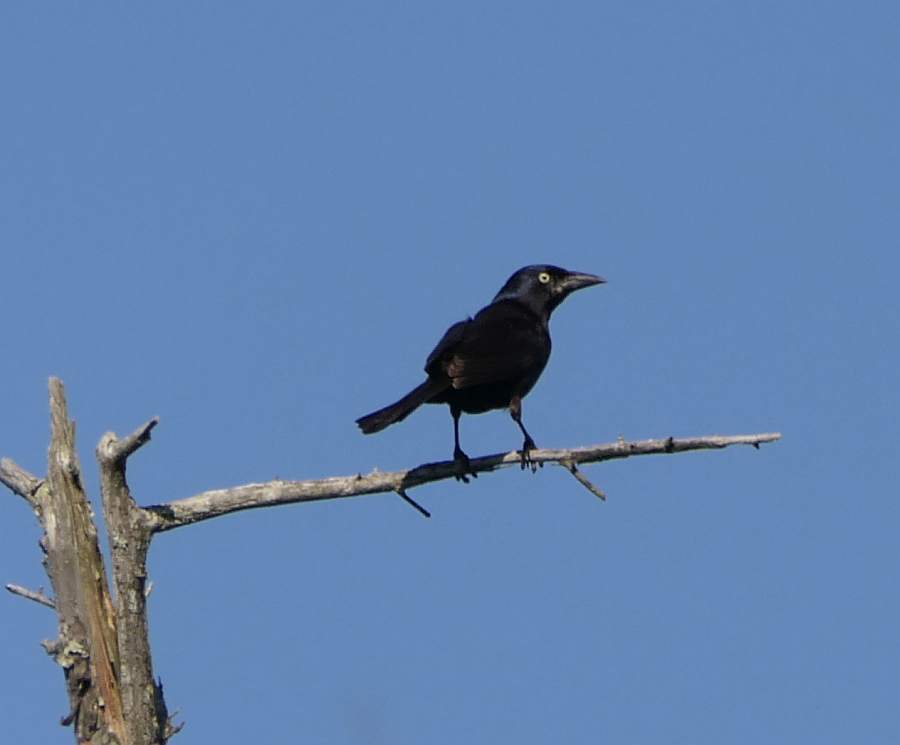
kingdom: Animalia
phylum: Chordata
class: Aves
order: Passeriformes
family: Icteridae
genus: Quiscalus
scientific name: Quiscalus quiscula
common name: Common grackle
